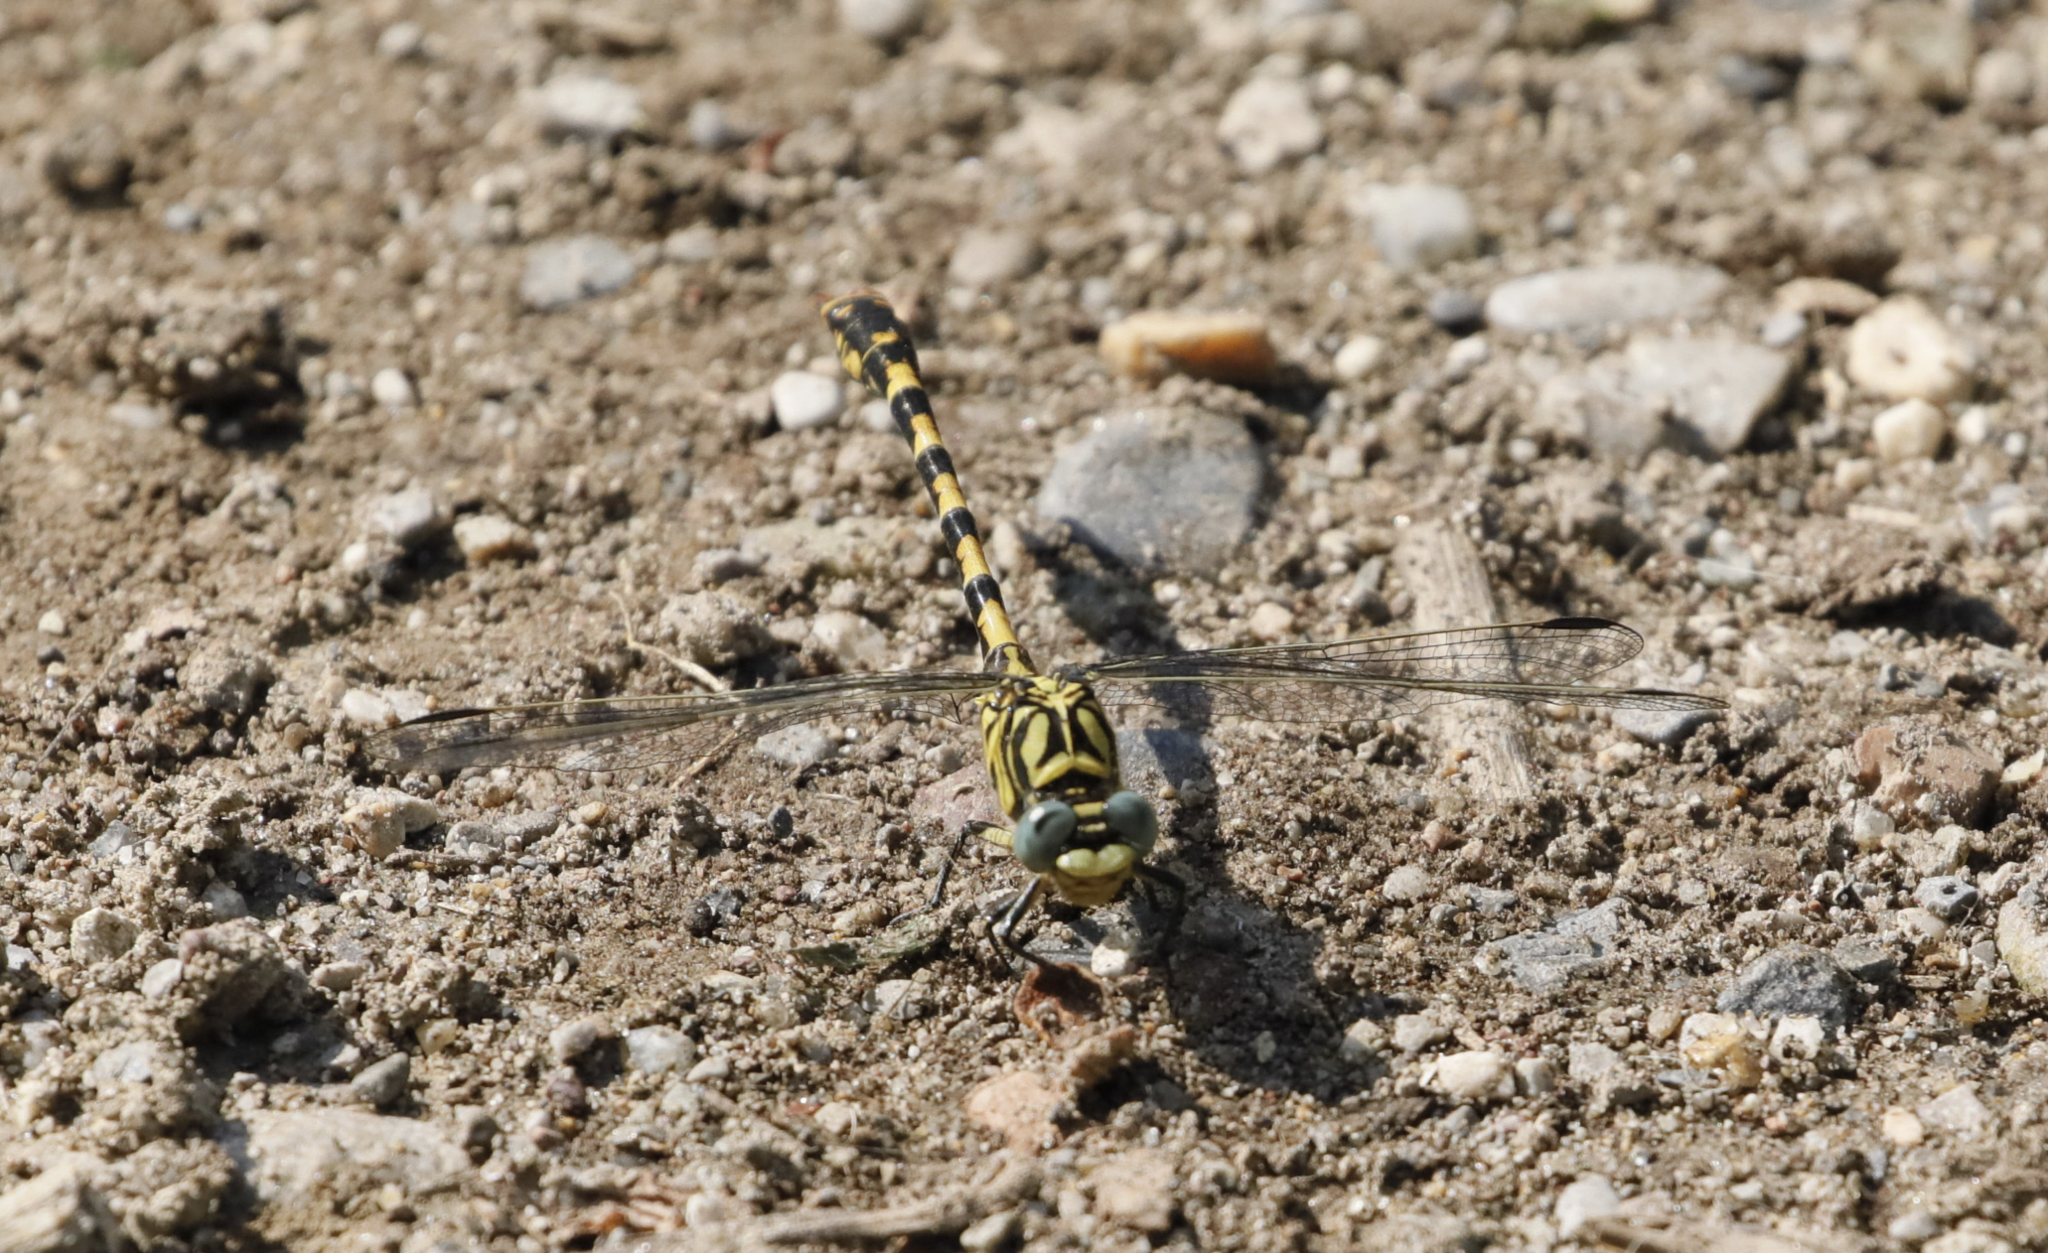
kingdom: Animalia
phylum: Arthropoda
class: Insecta
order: Odonata
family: Gomphidae
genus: Onychogomphus
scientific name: Onychogomphus forcipatus
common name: Small pincertail
